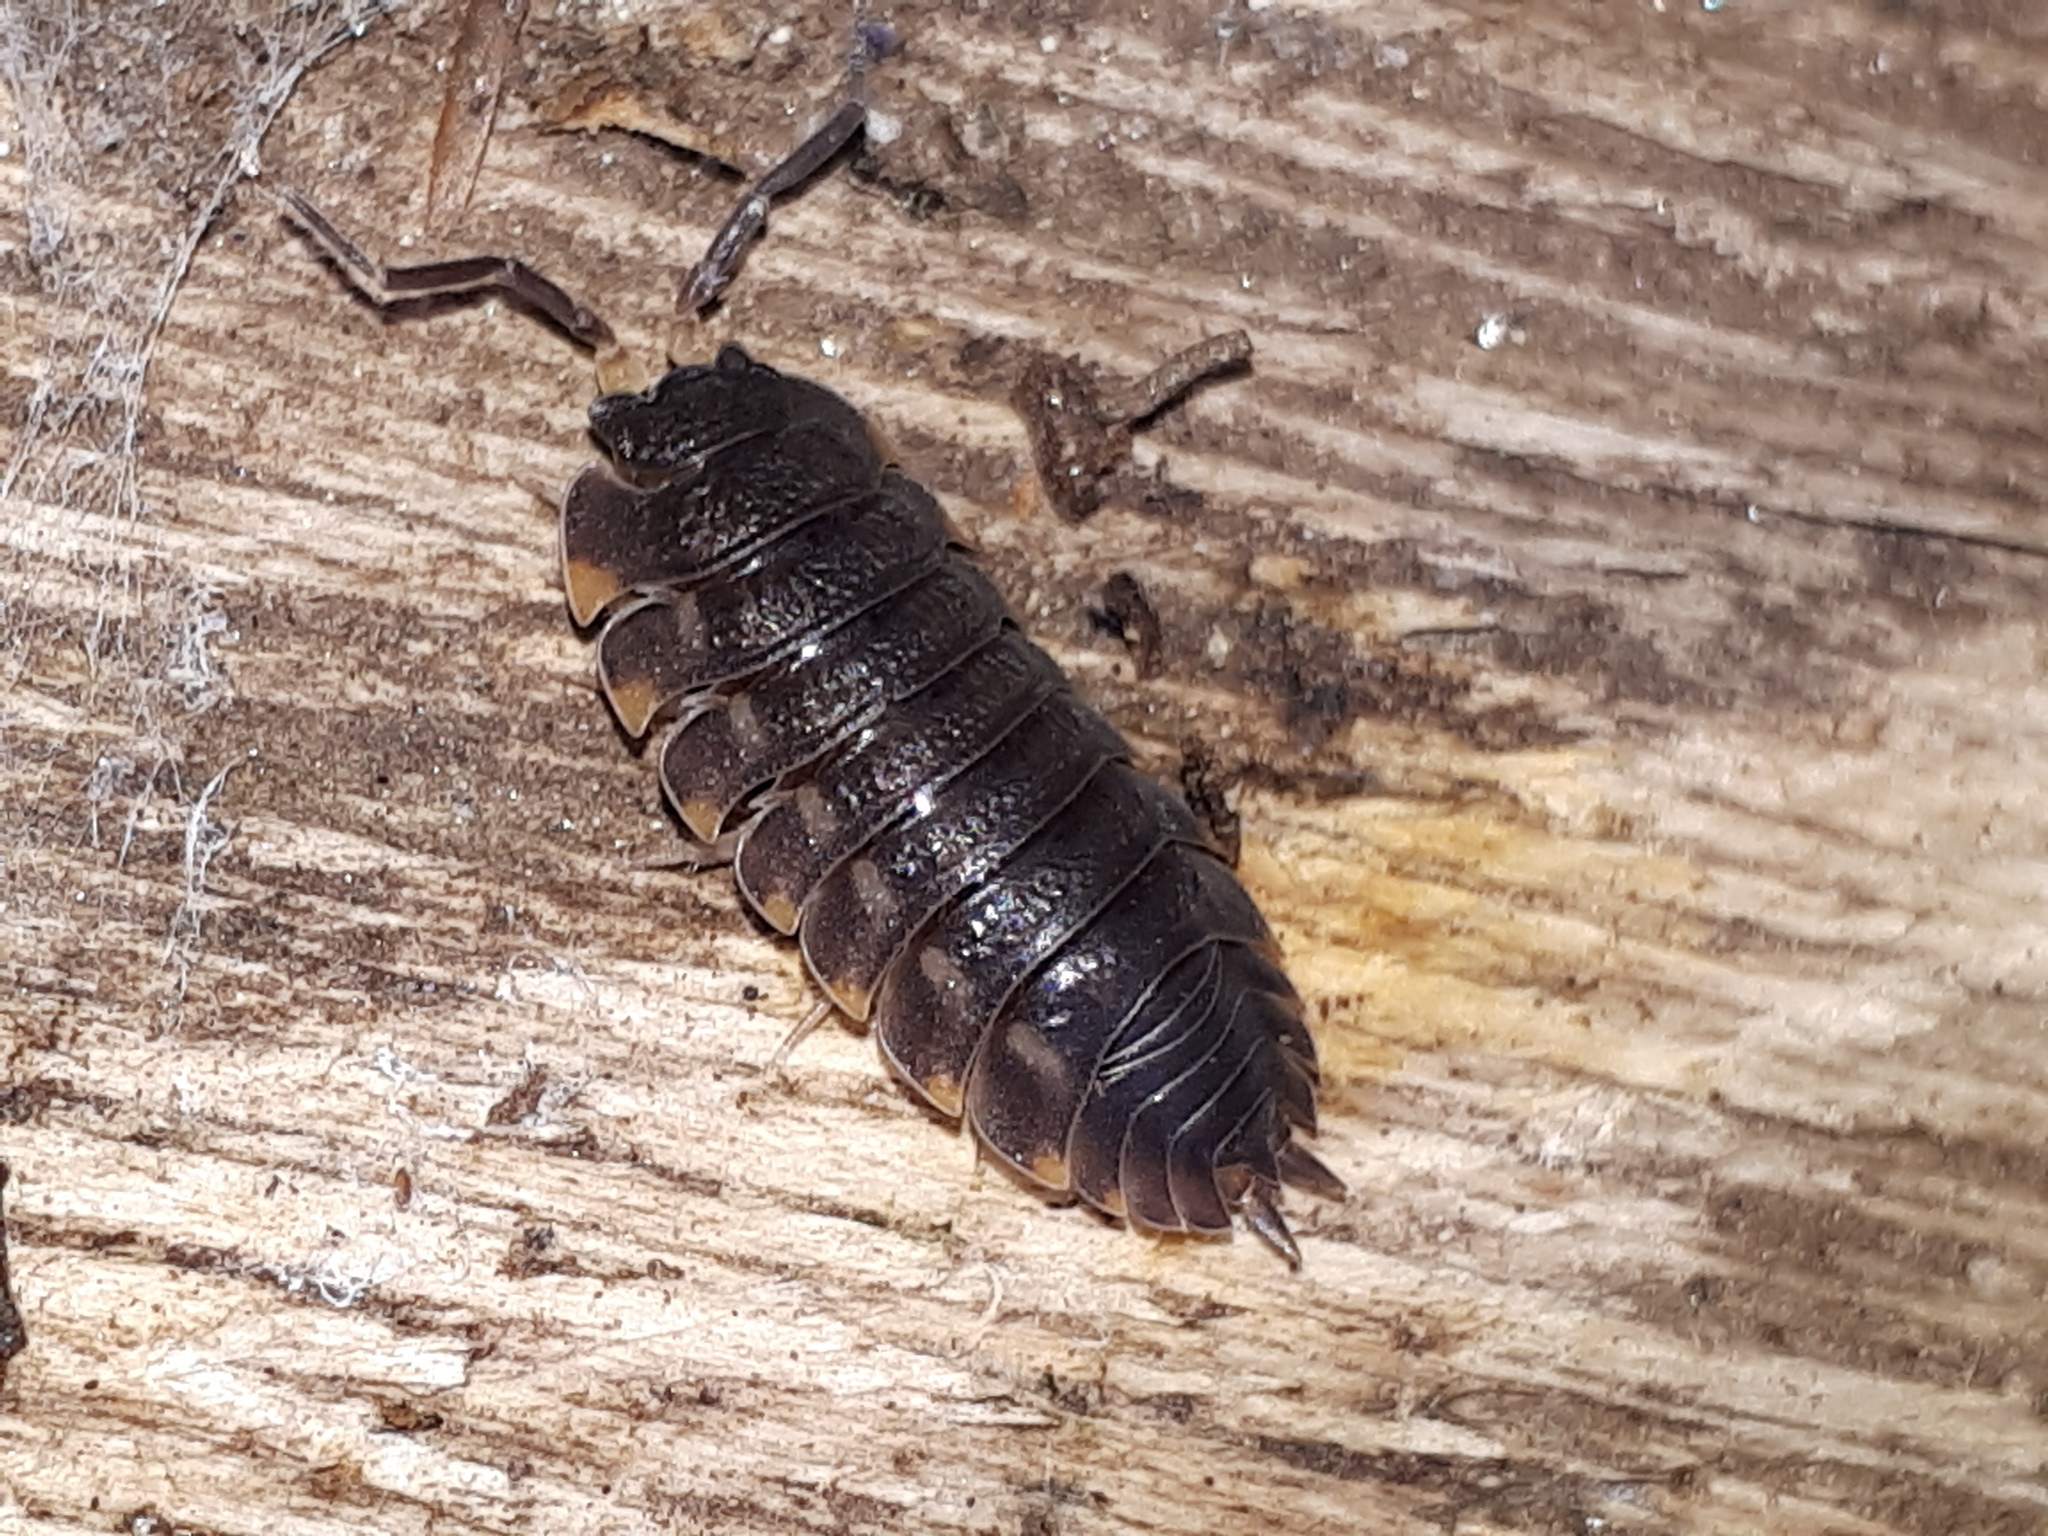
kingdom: Animalia
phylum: Arthropoda
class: Malacostraca
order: Isopoda
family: Trachelipodidae
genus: Trachelipus
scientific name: Trachelipus ratzeburgii
